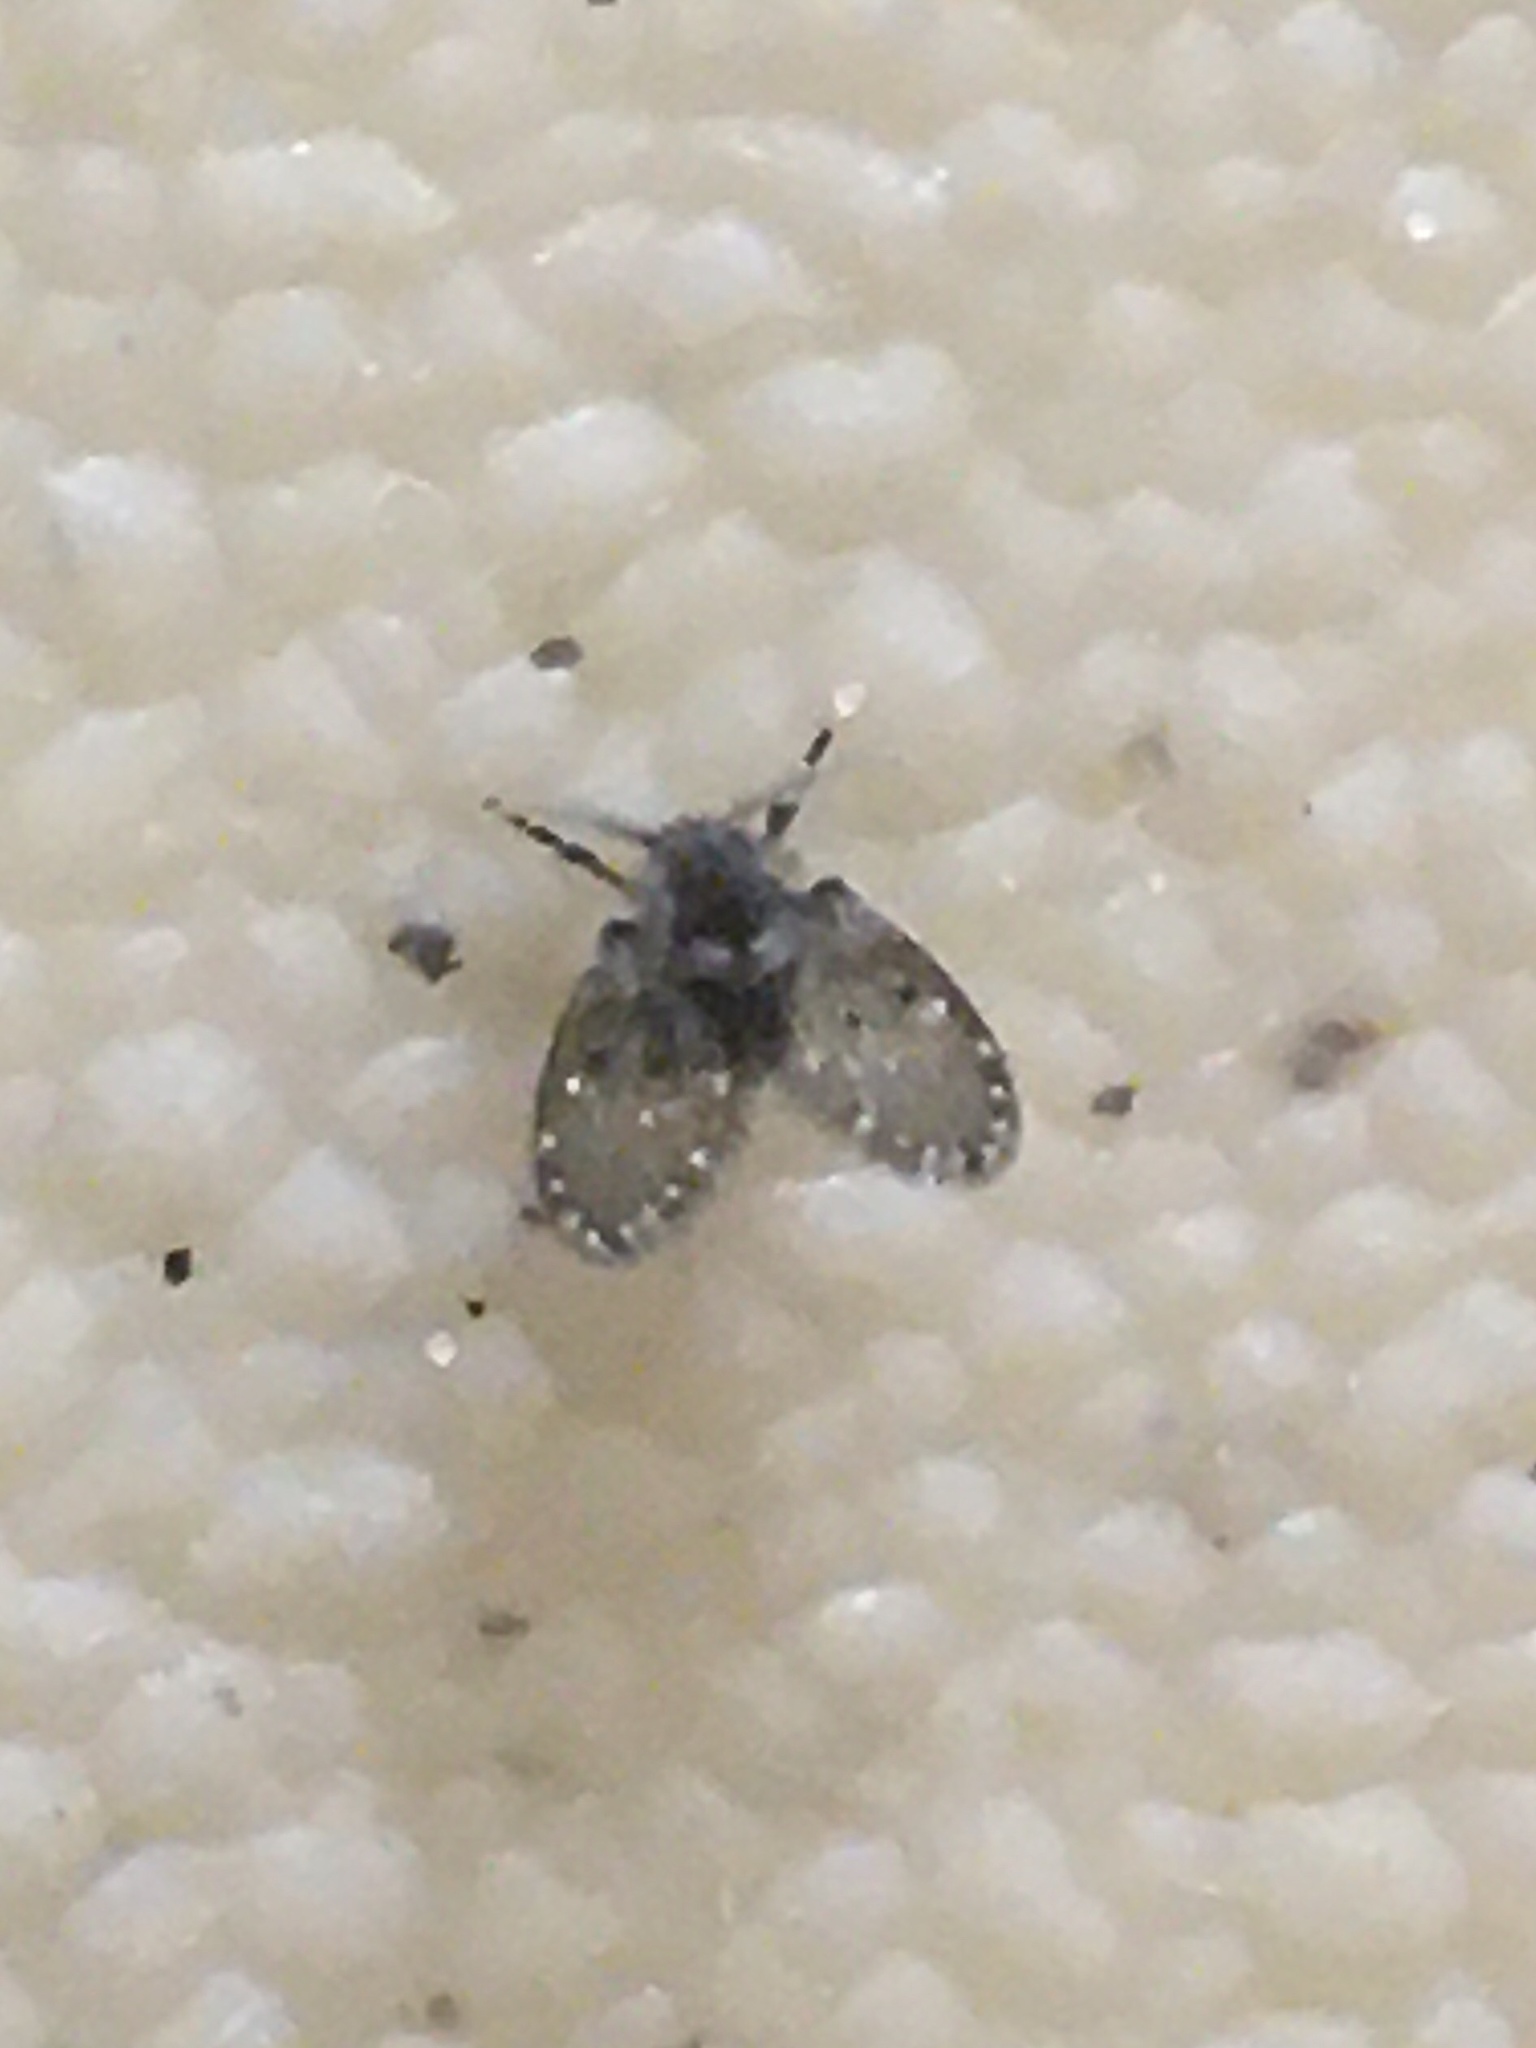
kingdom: Animalia
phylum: Arthropoda
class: Insecta
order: Diptera
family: Psychodidae
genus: Clogmia
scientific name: Clogmia albipunctatus
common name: White-spotted moth fly
